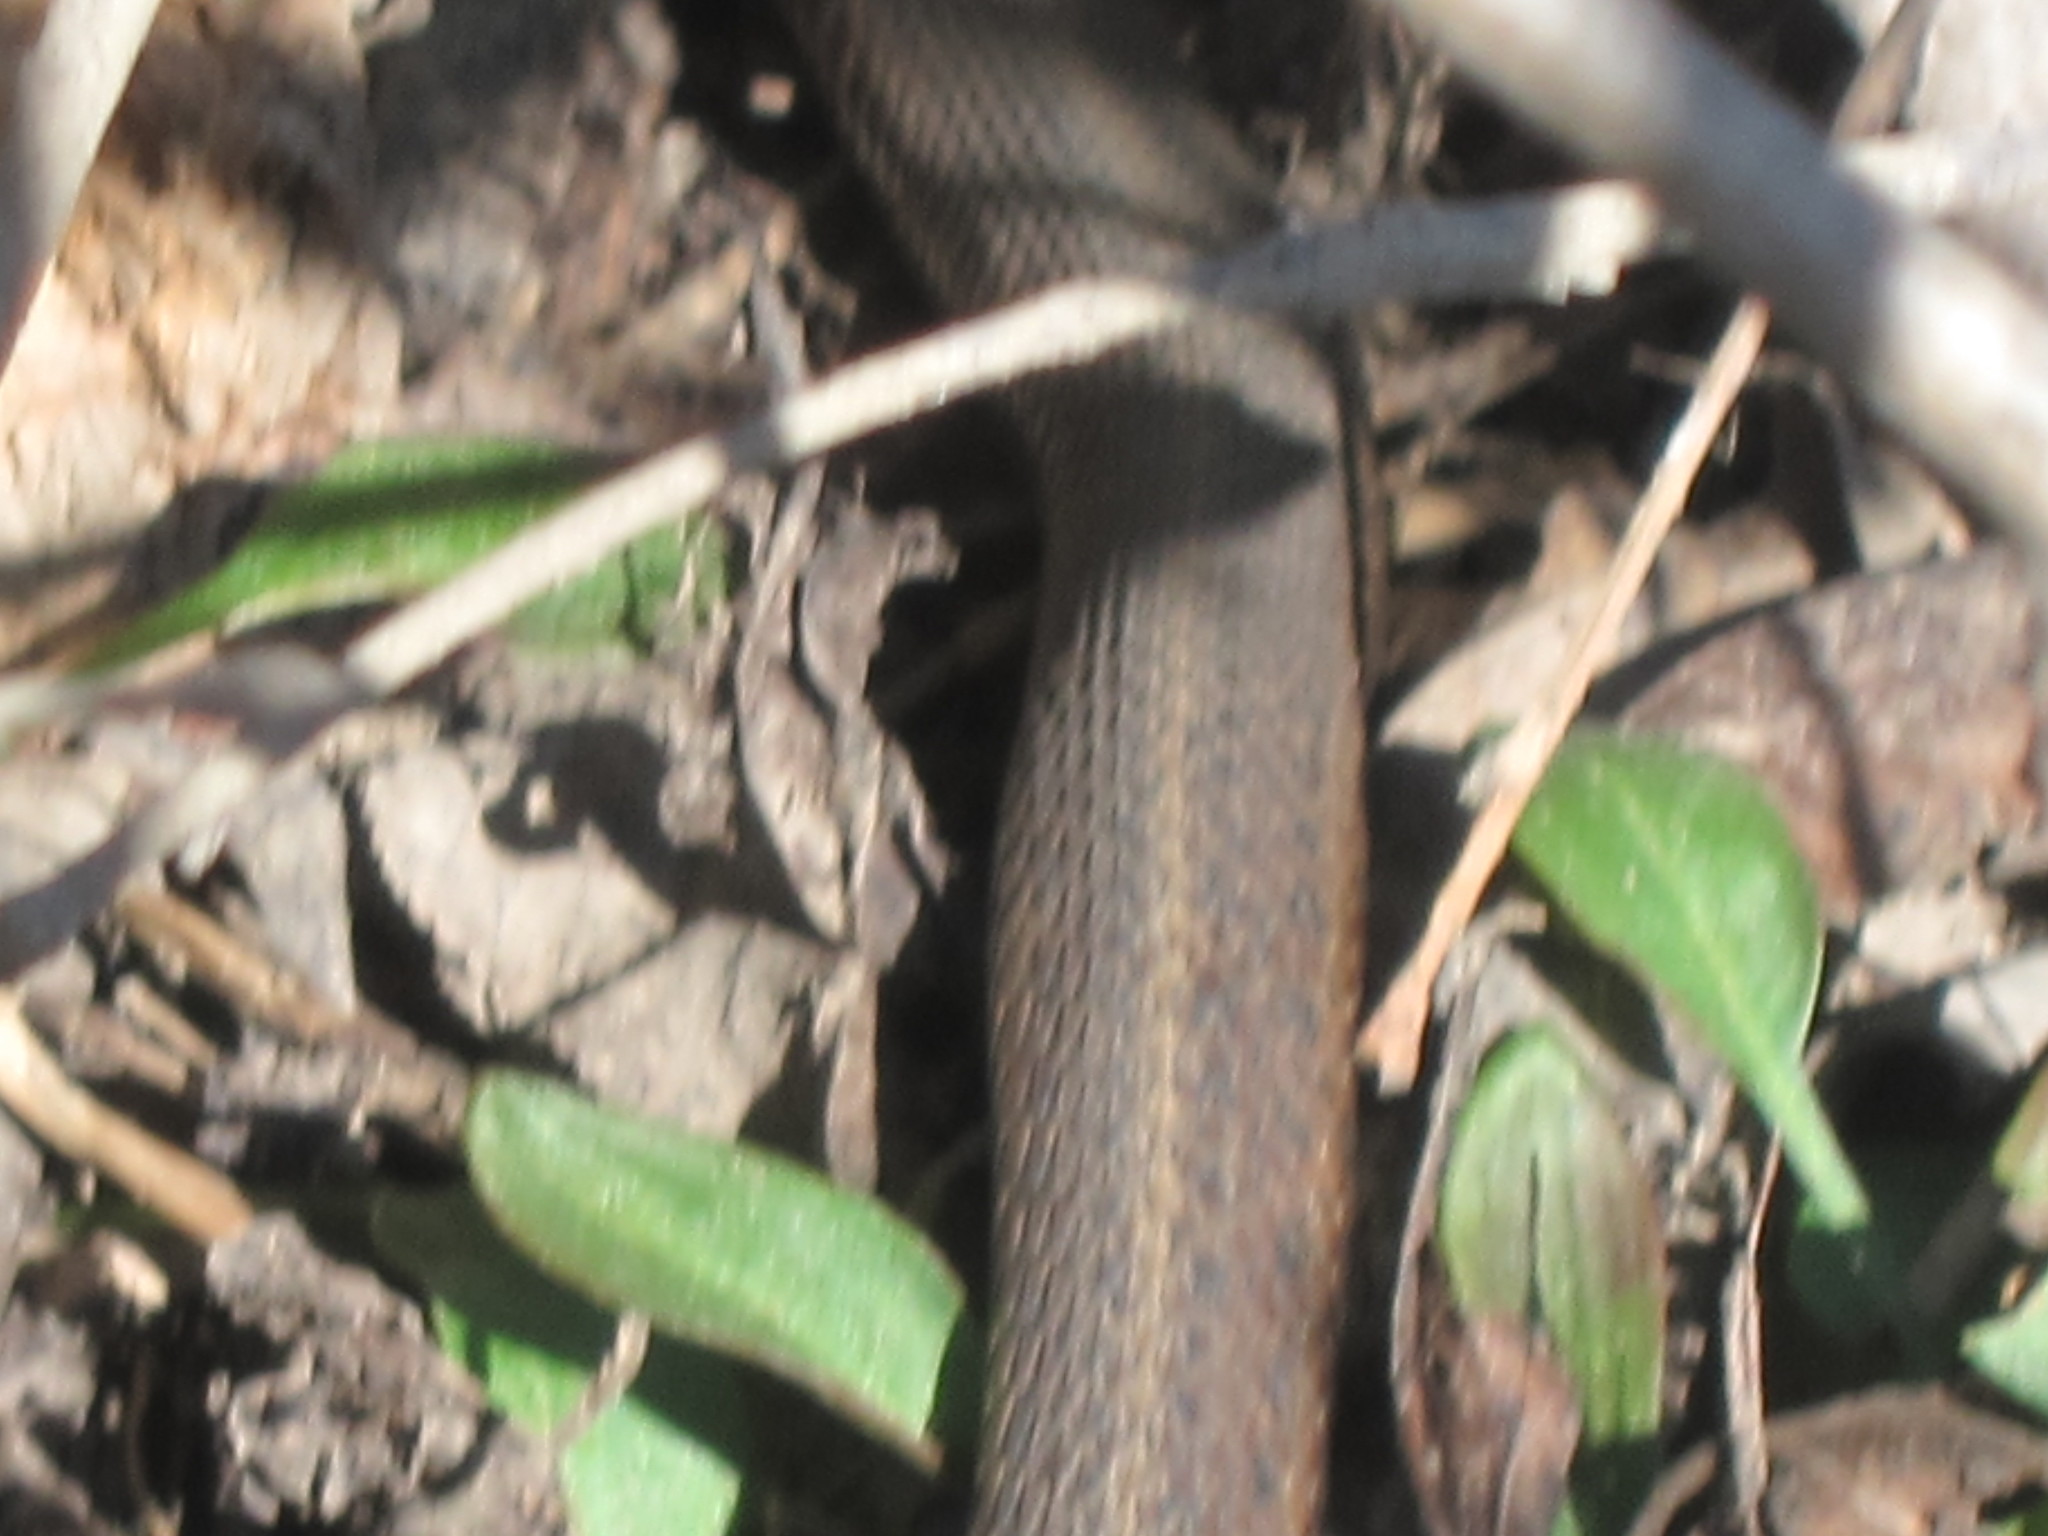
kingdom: Animalia
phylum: Chordata
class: Squamata
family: Colubridae
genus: Thamnophis
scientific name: Thamnophis ordinoides
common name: Northwestern garter snake
